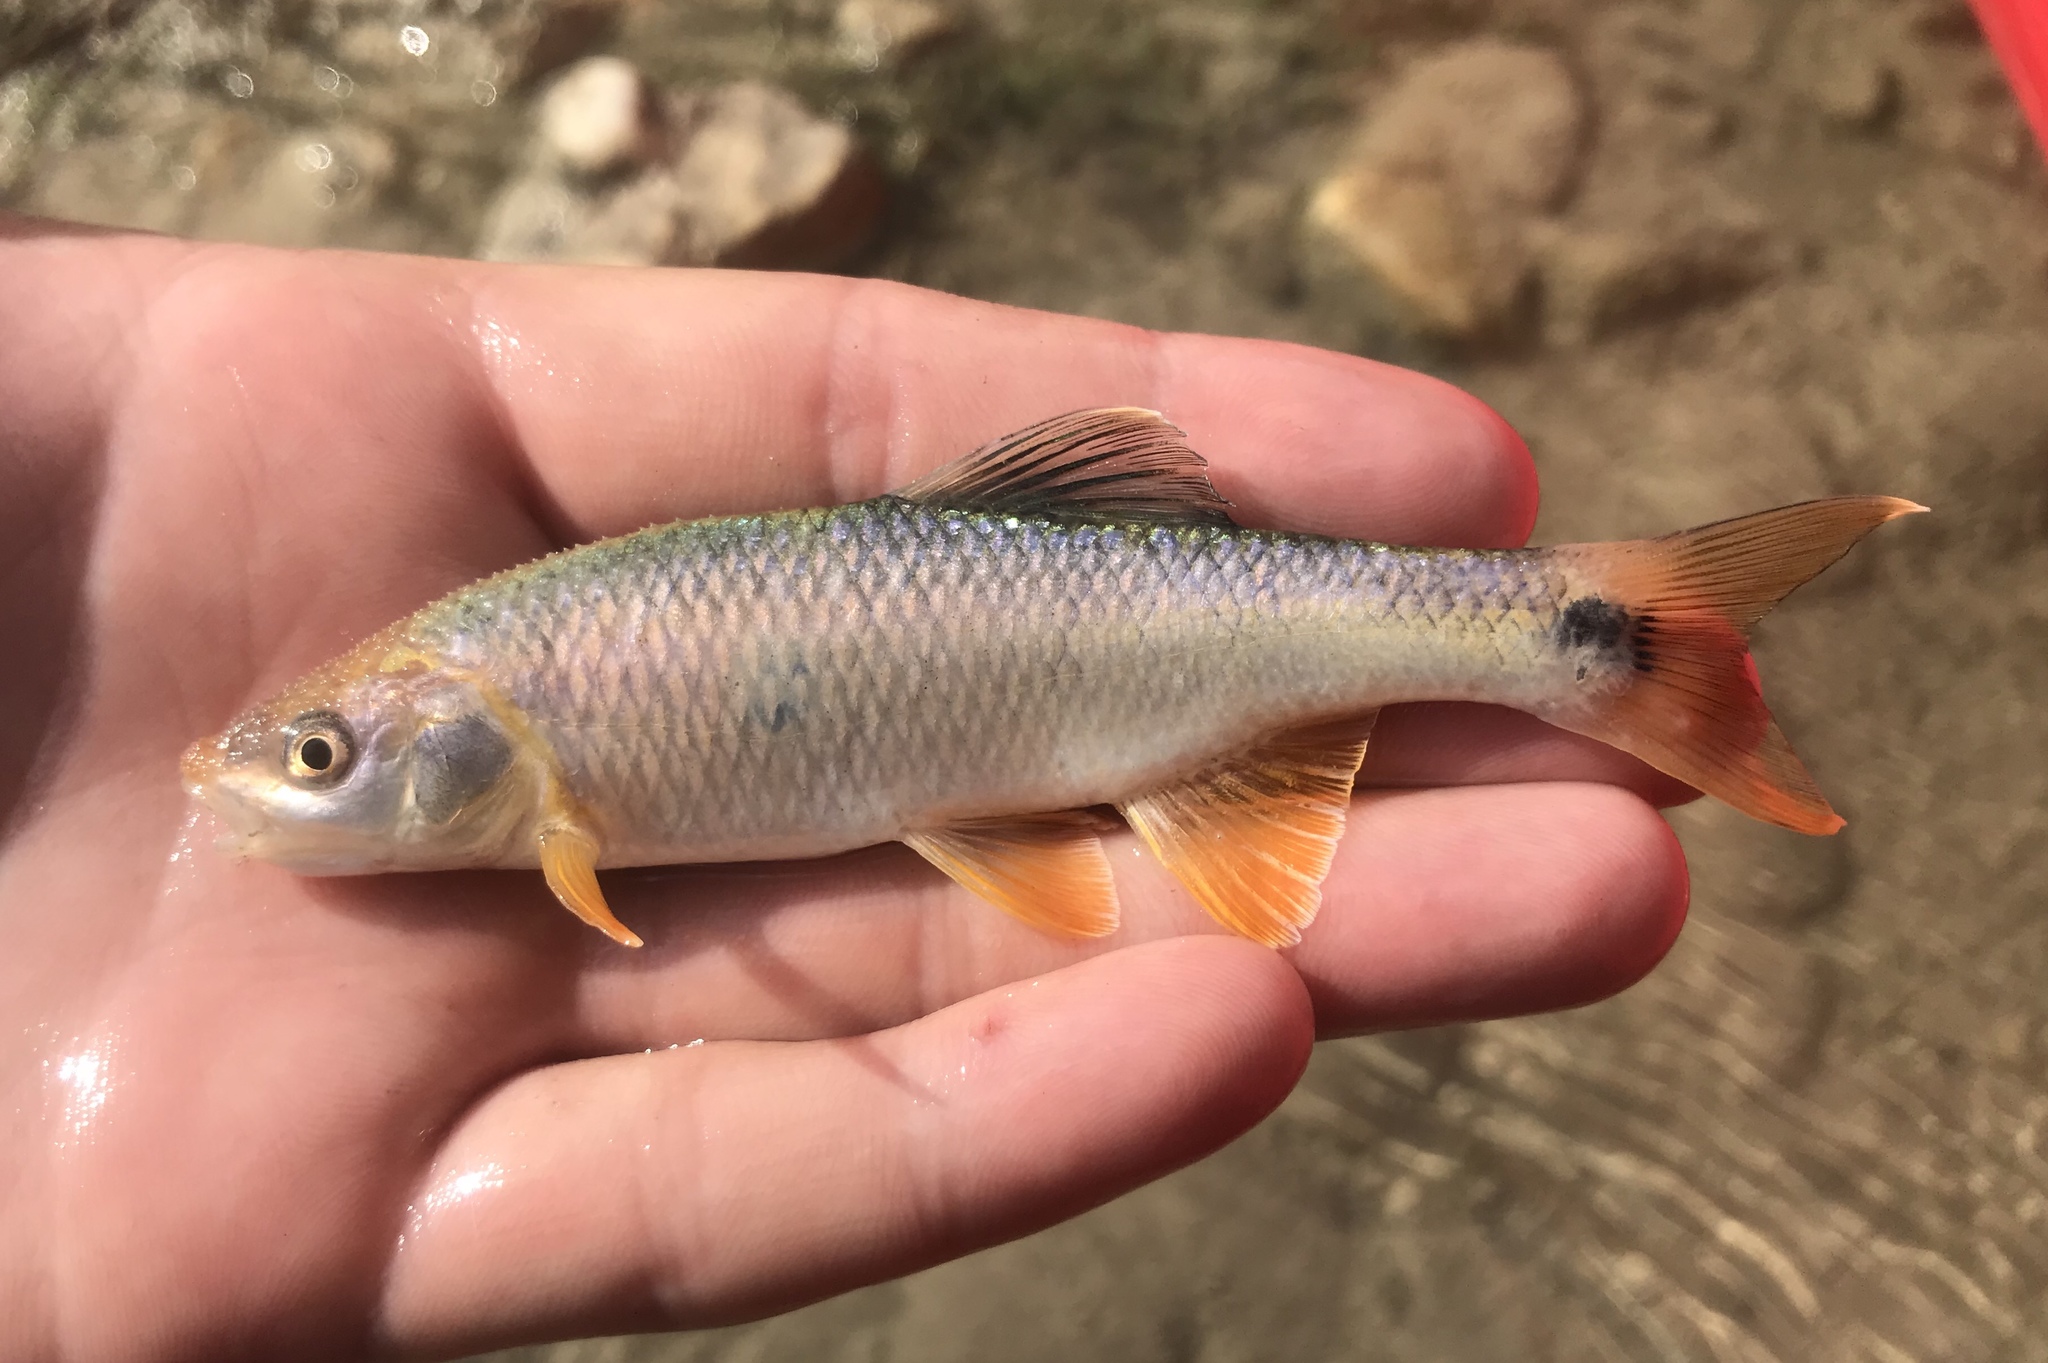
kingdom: Animalia
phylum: Chordata
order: Cypriniformes
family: Cyprinidae
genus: Cyprinella
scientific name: Cyprinella venusta
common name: Blacktail shiner
